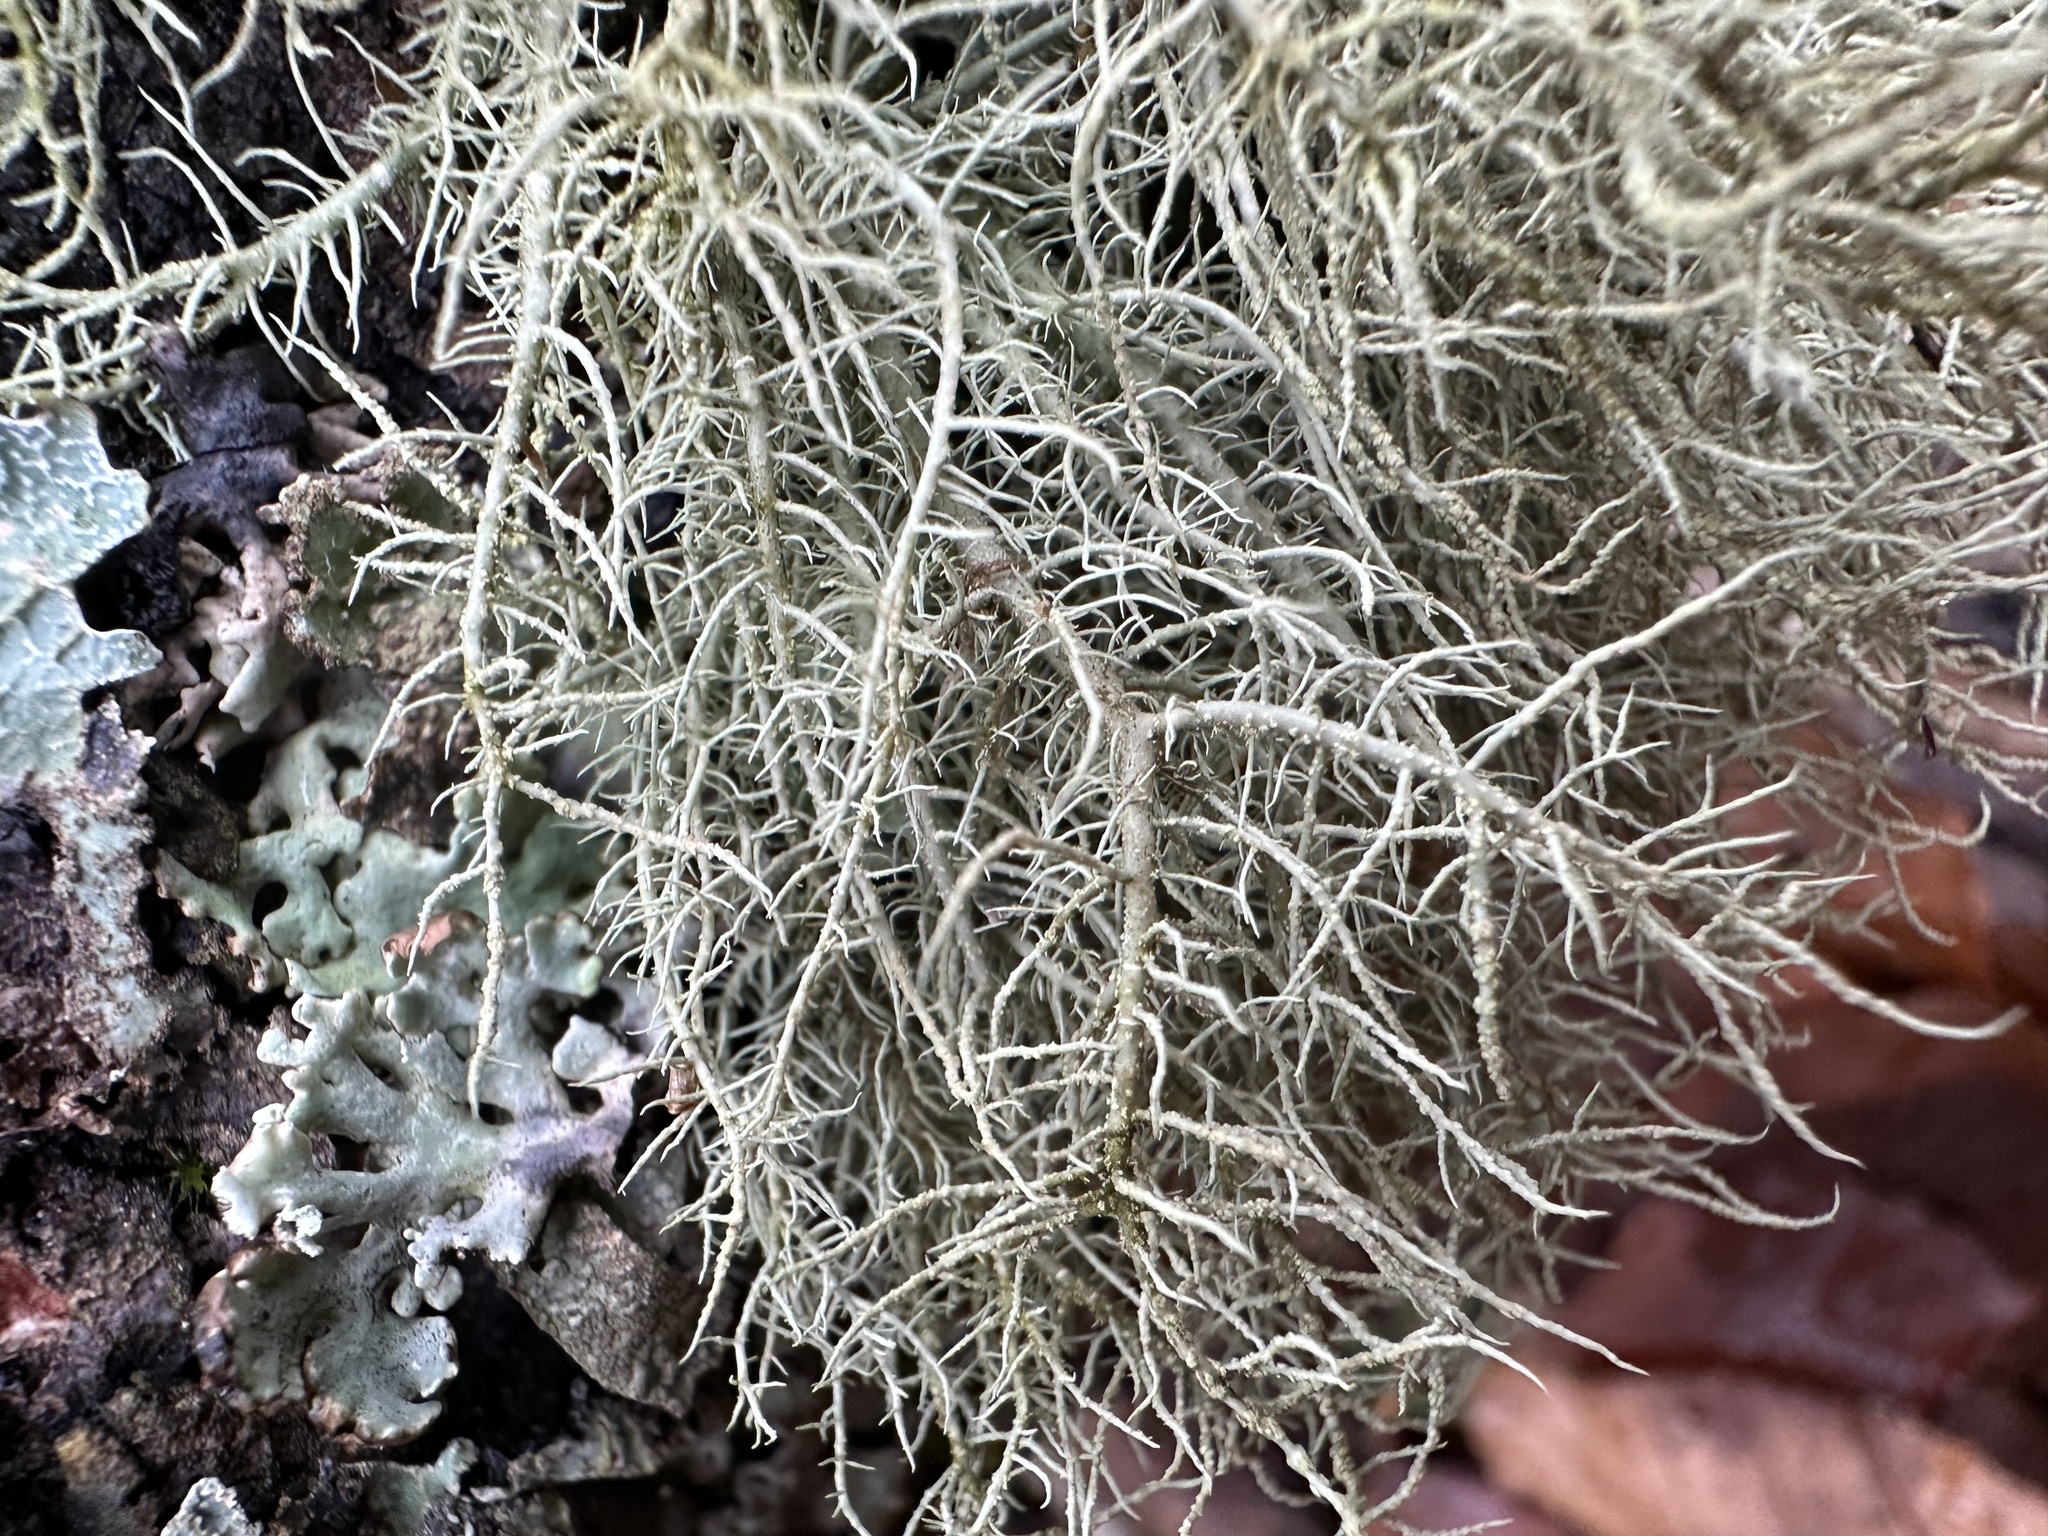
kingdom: Fungi
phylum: Ascomycota
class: Lecanoromycetes
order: Lecanorales
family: Parmeliaceae
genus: Usnea
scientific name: Usnea hirta
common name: Bristly beard lichen
